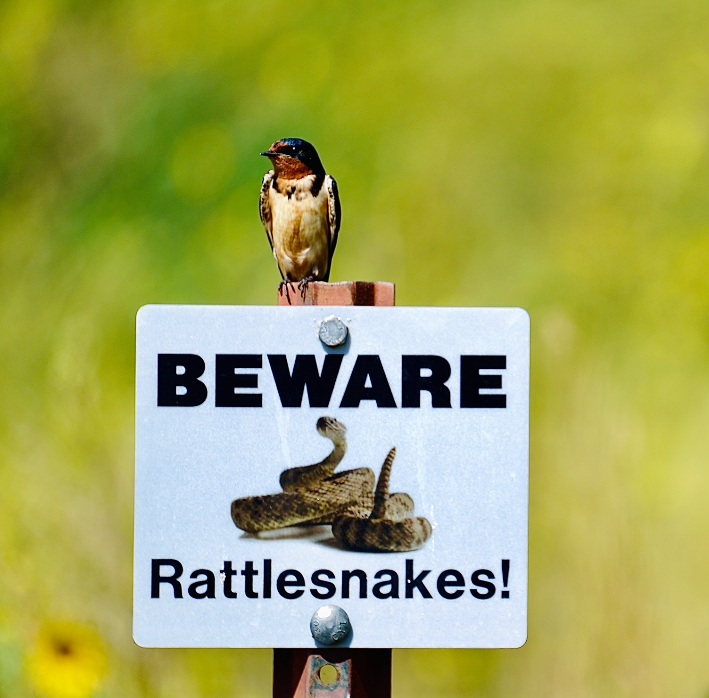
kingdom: Animalia
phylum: Chordata
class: Aves
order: Passeriformes
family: Hirundinidae
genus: Hirundo
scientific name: Hirundo rustica
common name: Barn swallow
